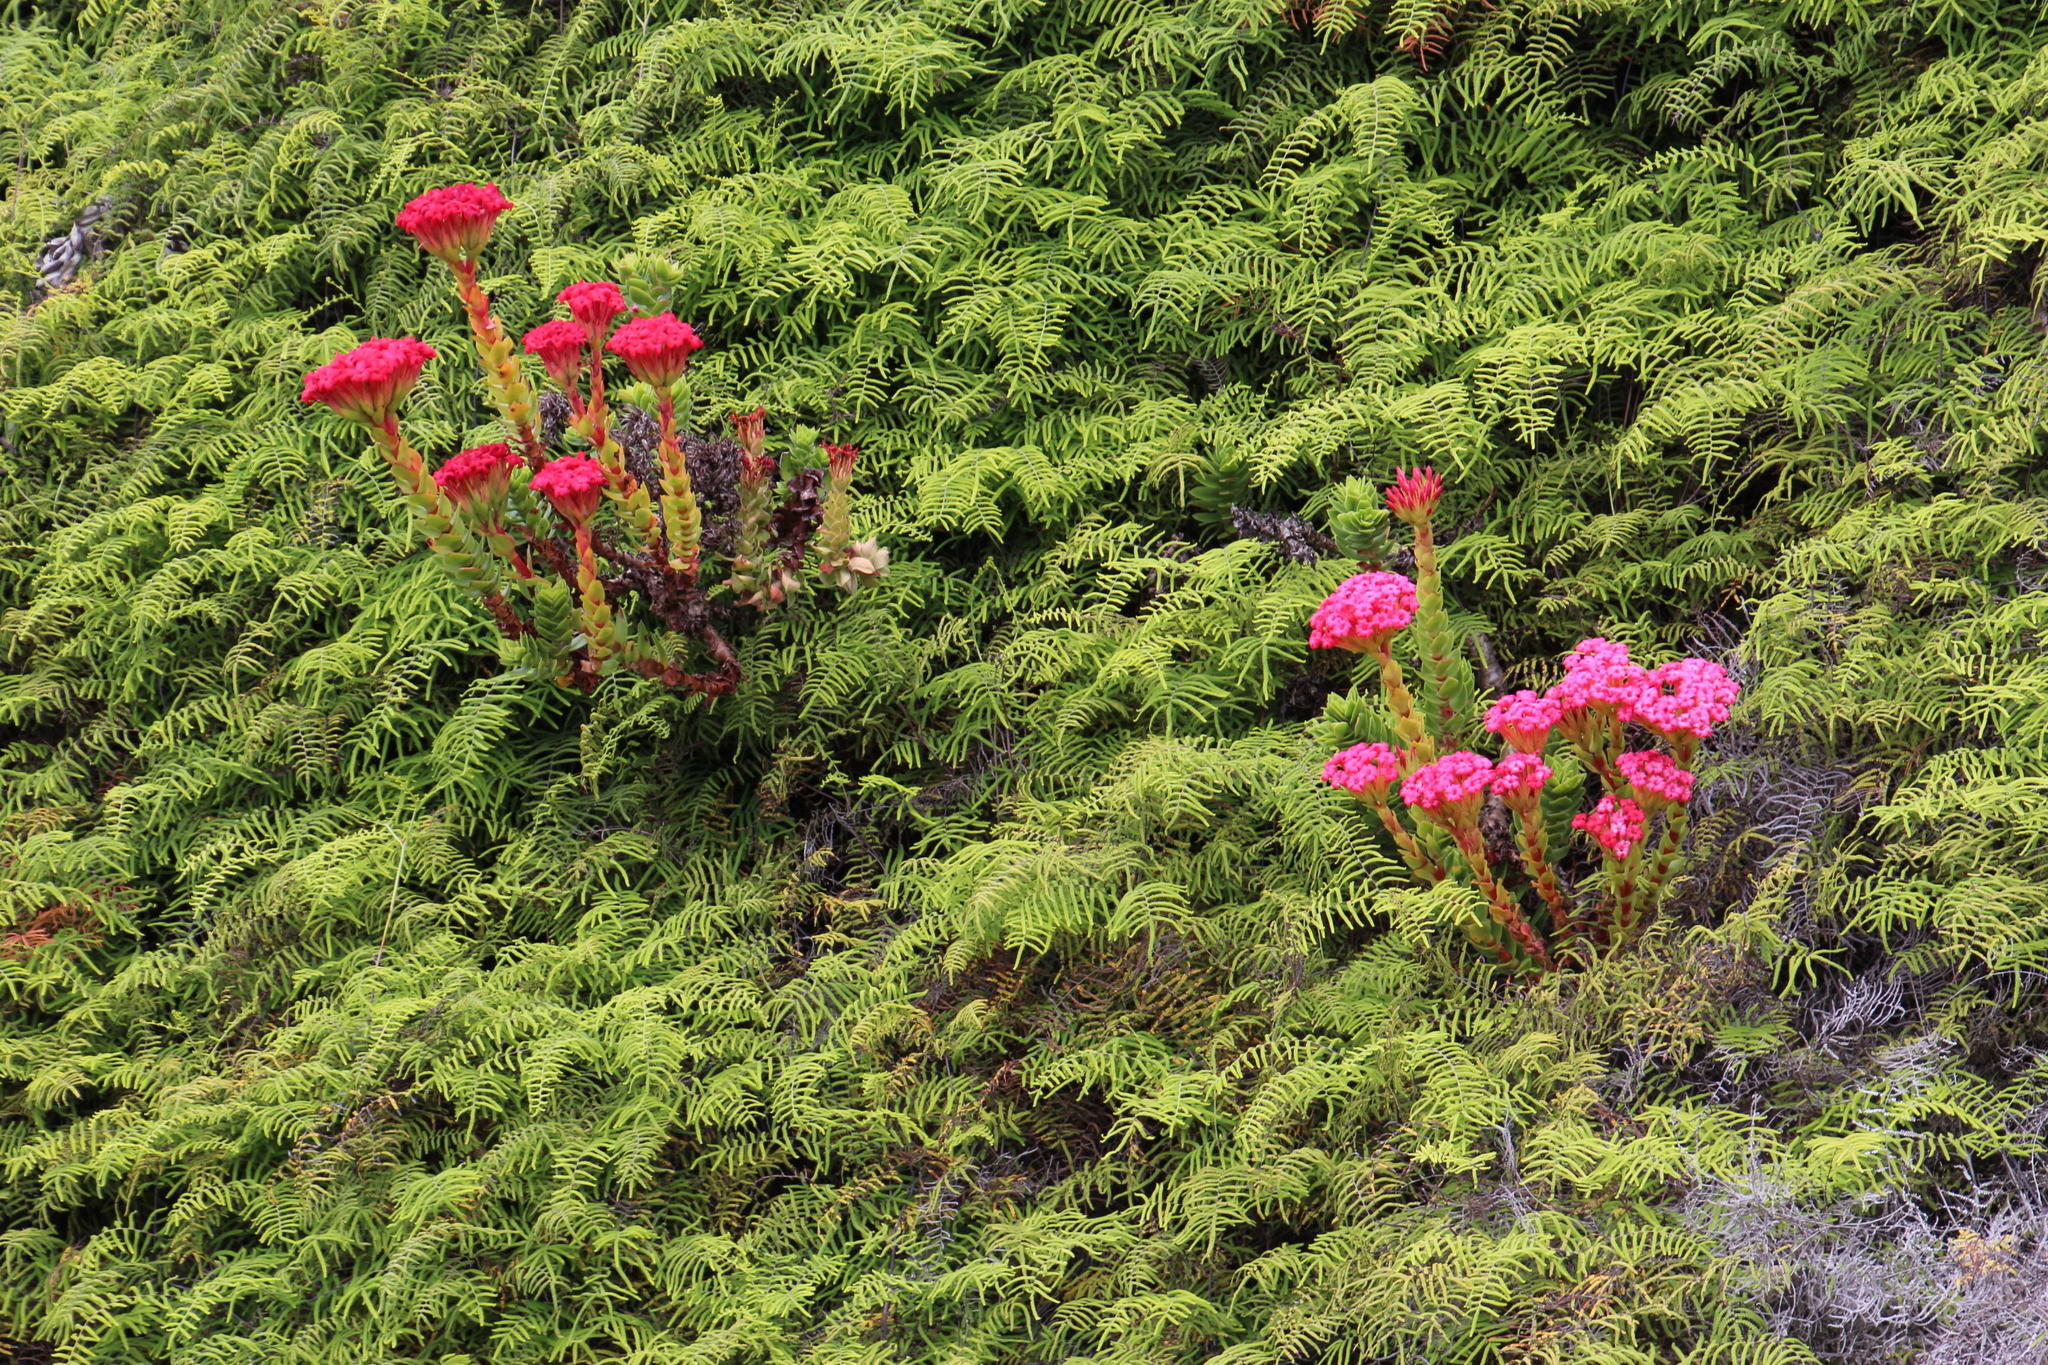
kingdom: Plantae
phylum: Tracheophyta
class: Magnoliopsida
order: Saxifragales
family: Crassulaceae
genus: Crassula
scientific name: Crassula coccinea
